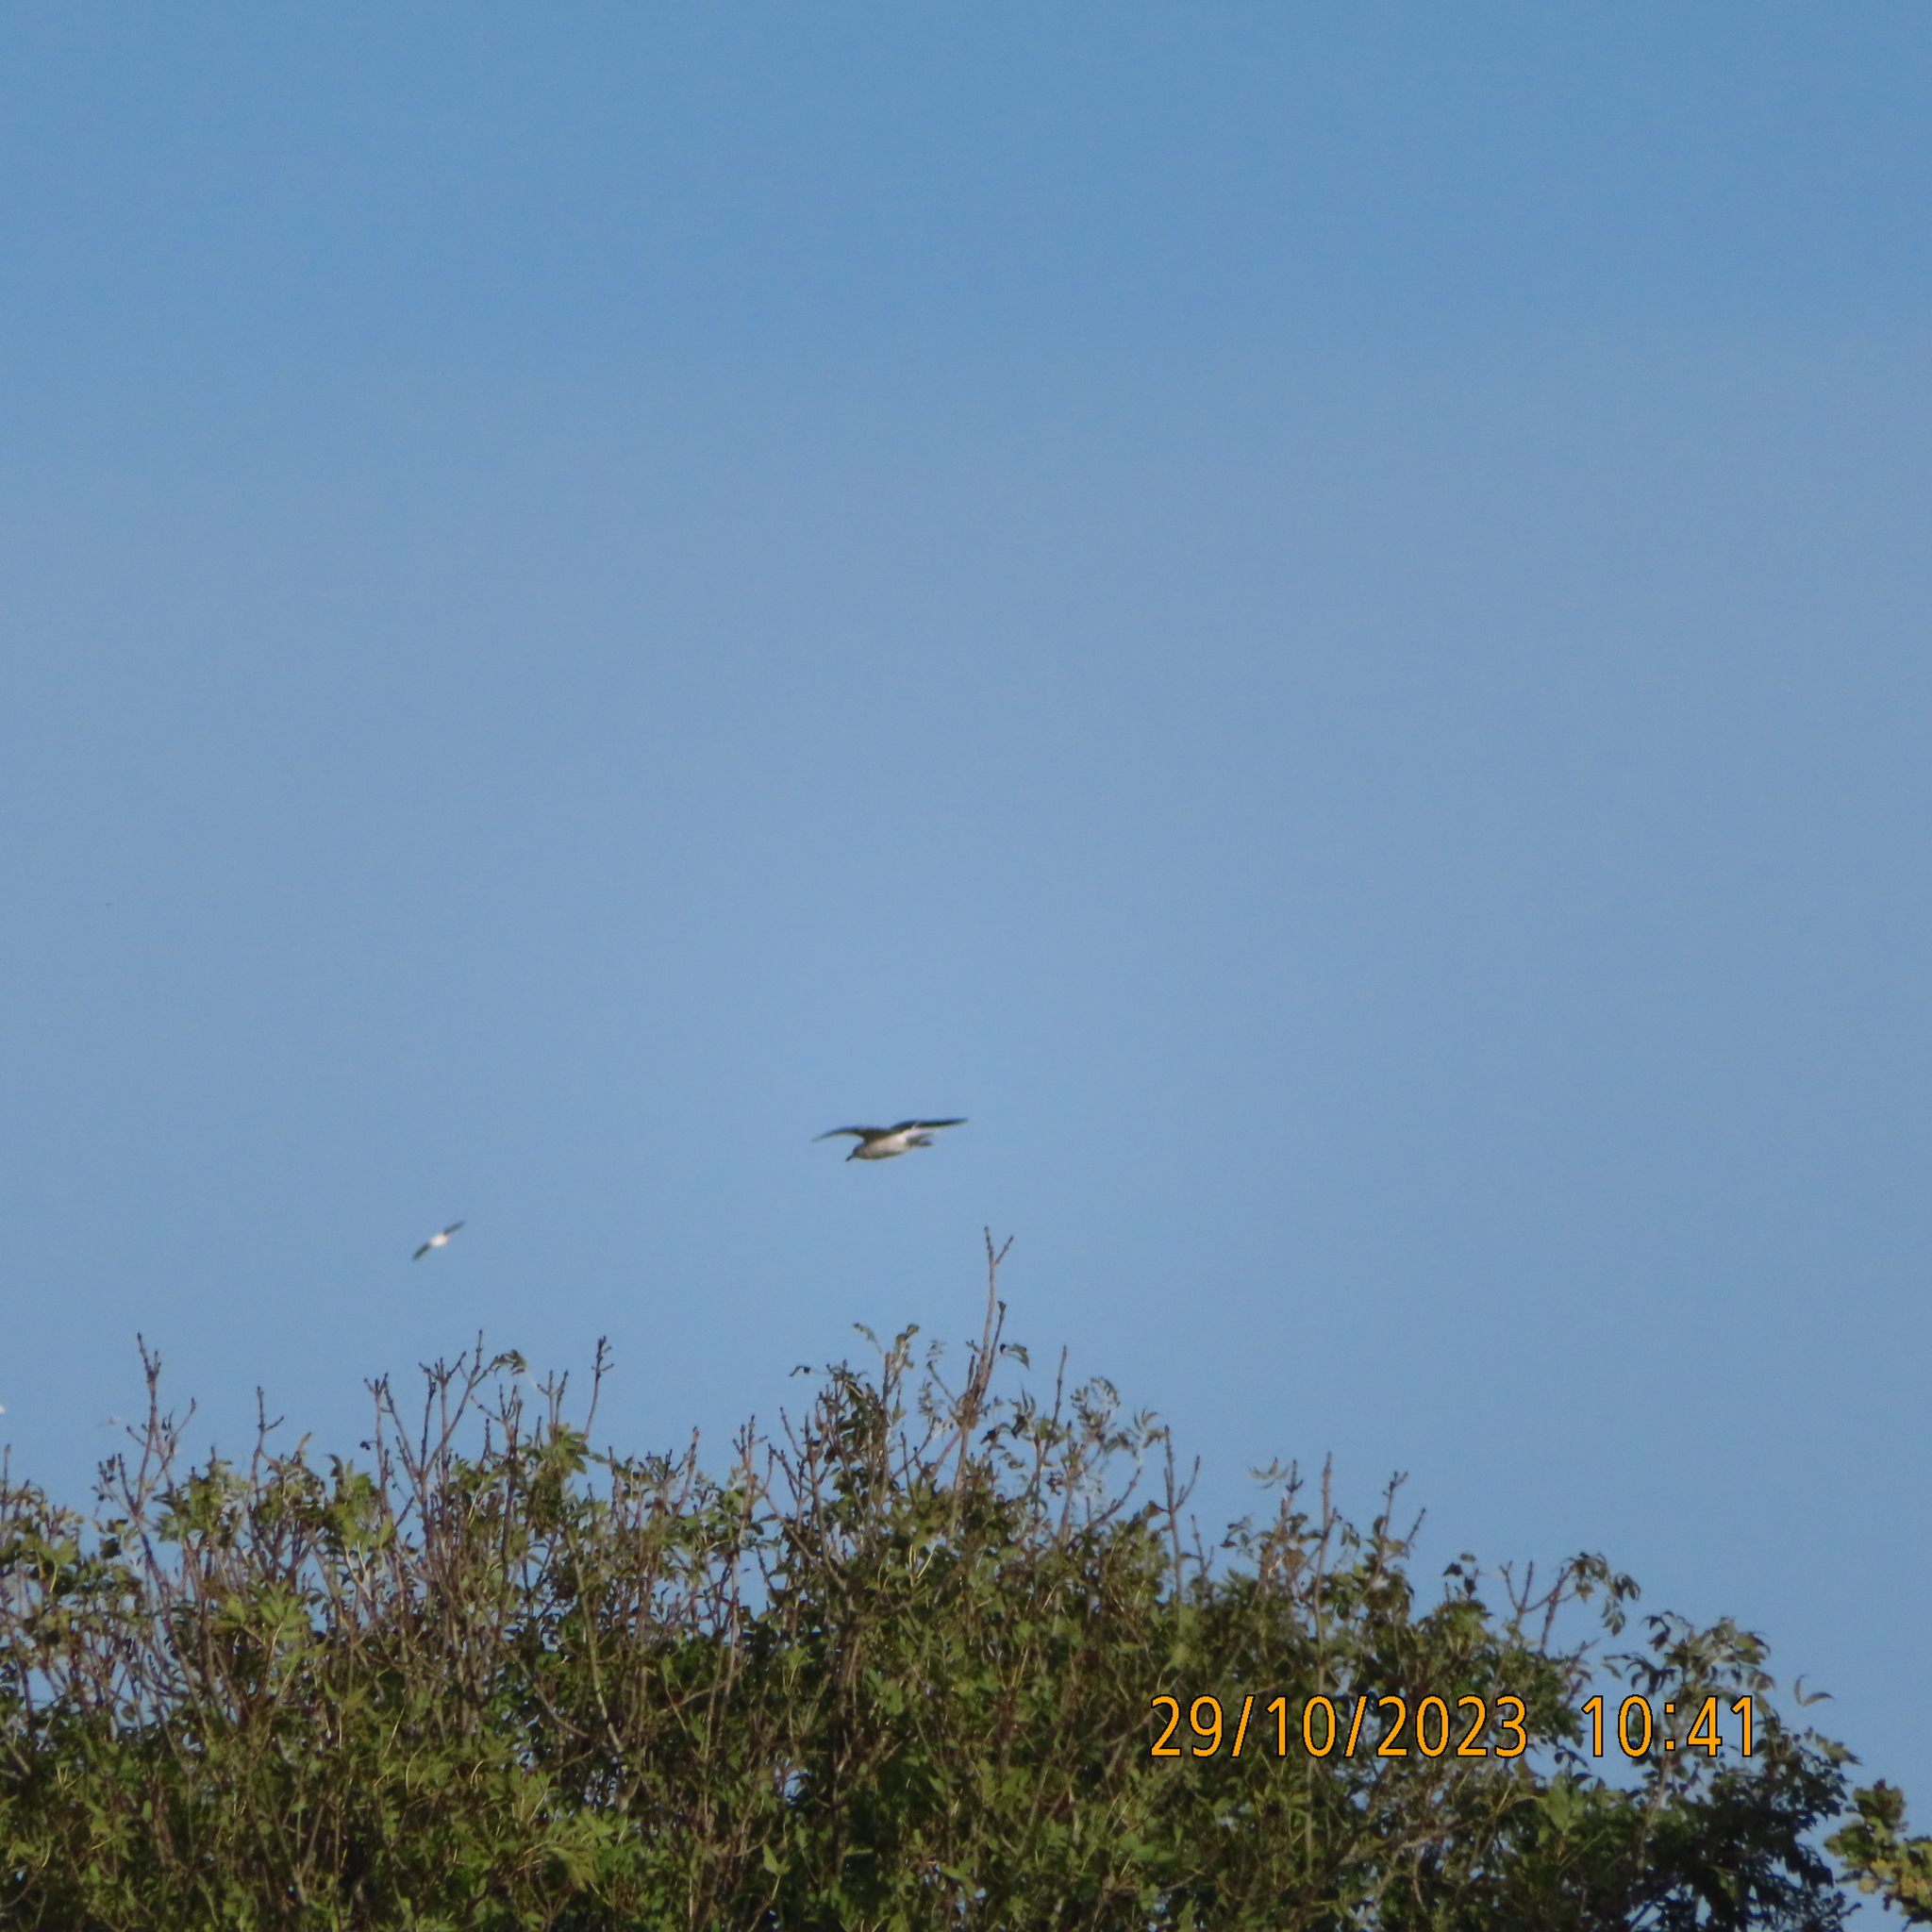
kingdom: Animalia
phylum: Chordata
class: Aves
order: Charadriiformes
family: Laridae
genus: Chroicocephalus
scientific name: Chroicocephalus ridibundus
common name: Black-headed gull
